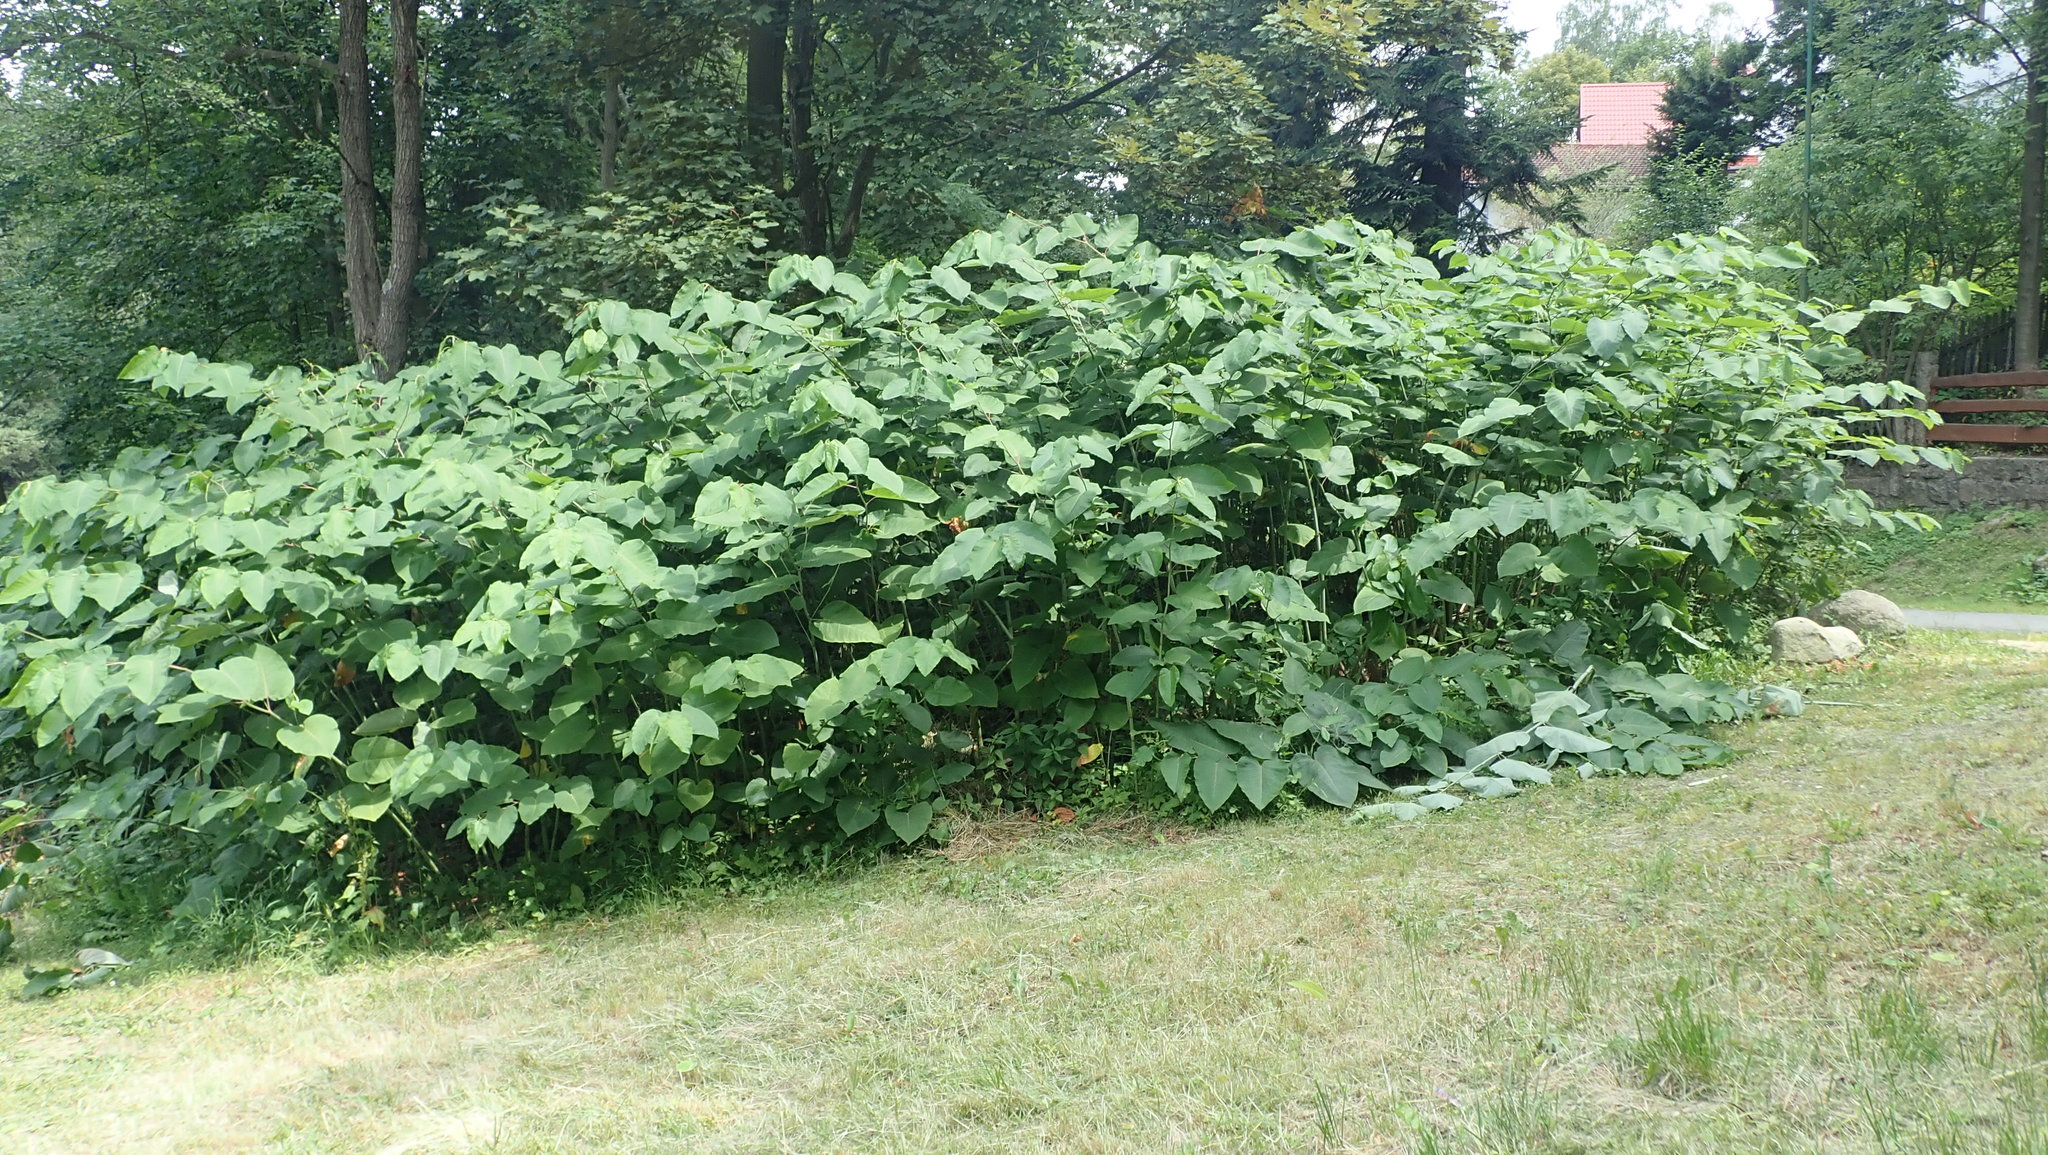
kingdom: Plantae
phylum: Tracheophyta
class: Magnoliopsida
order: Caryophyllales
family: Polygonaceae
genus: Reynoutria
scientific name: Reynoutria sachalinensis
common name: Giant knotweed
